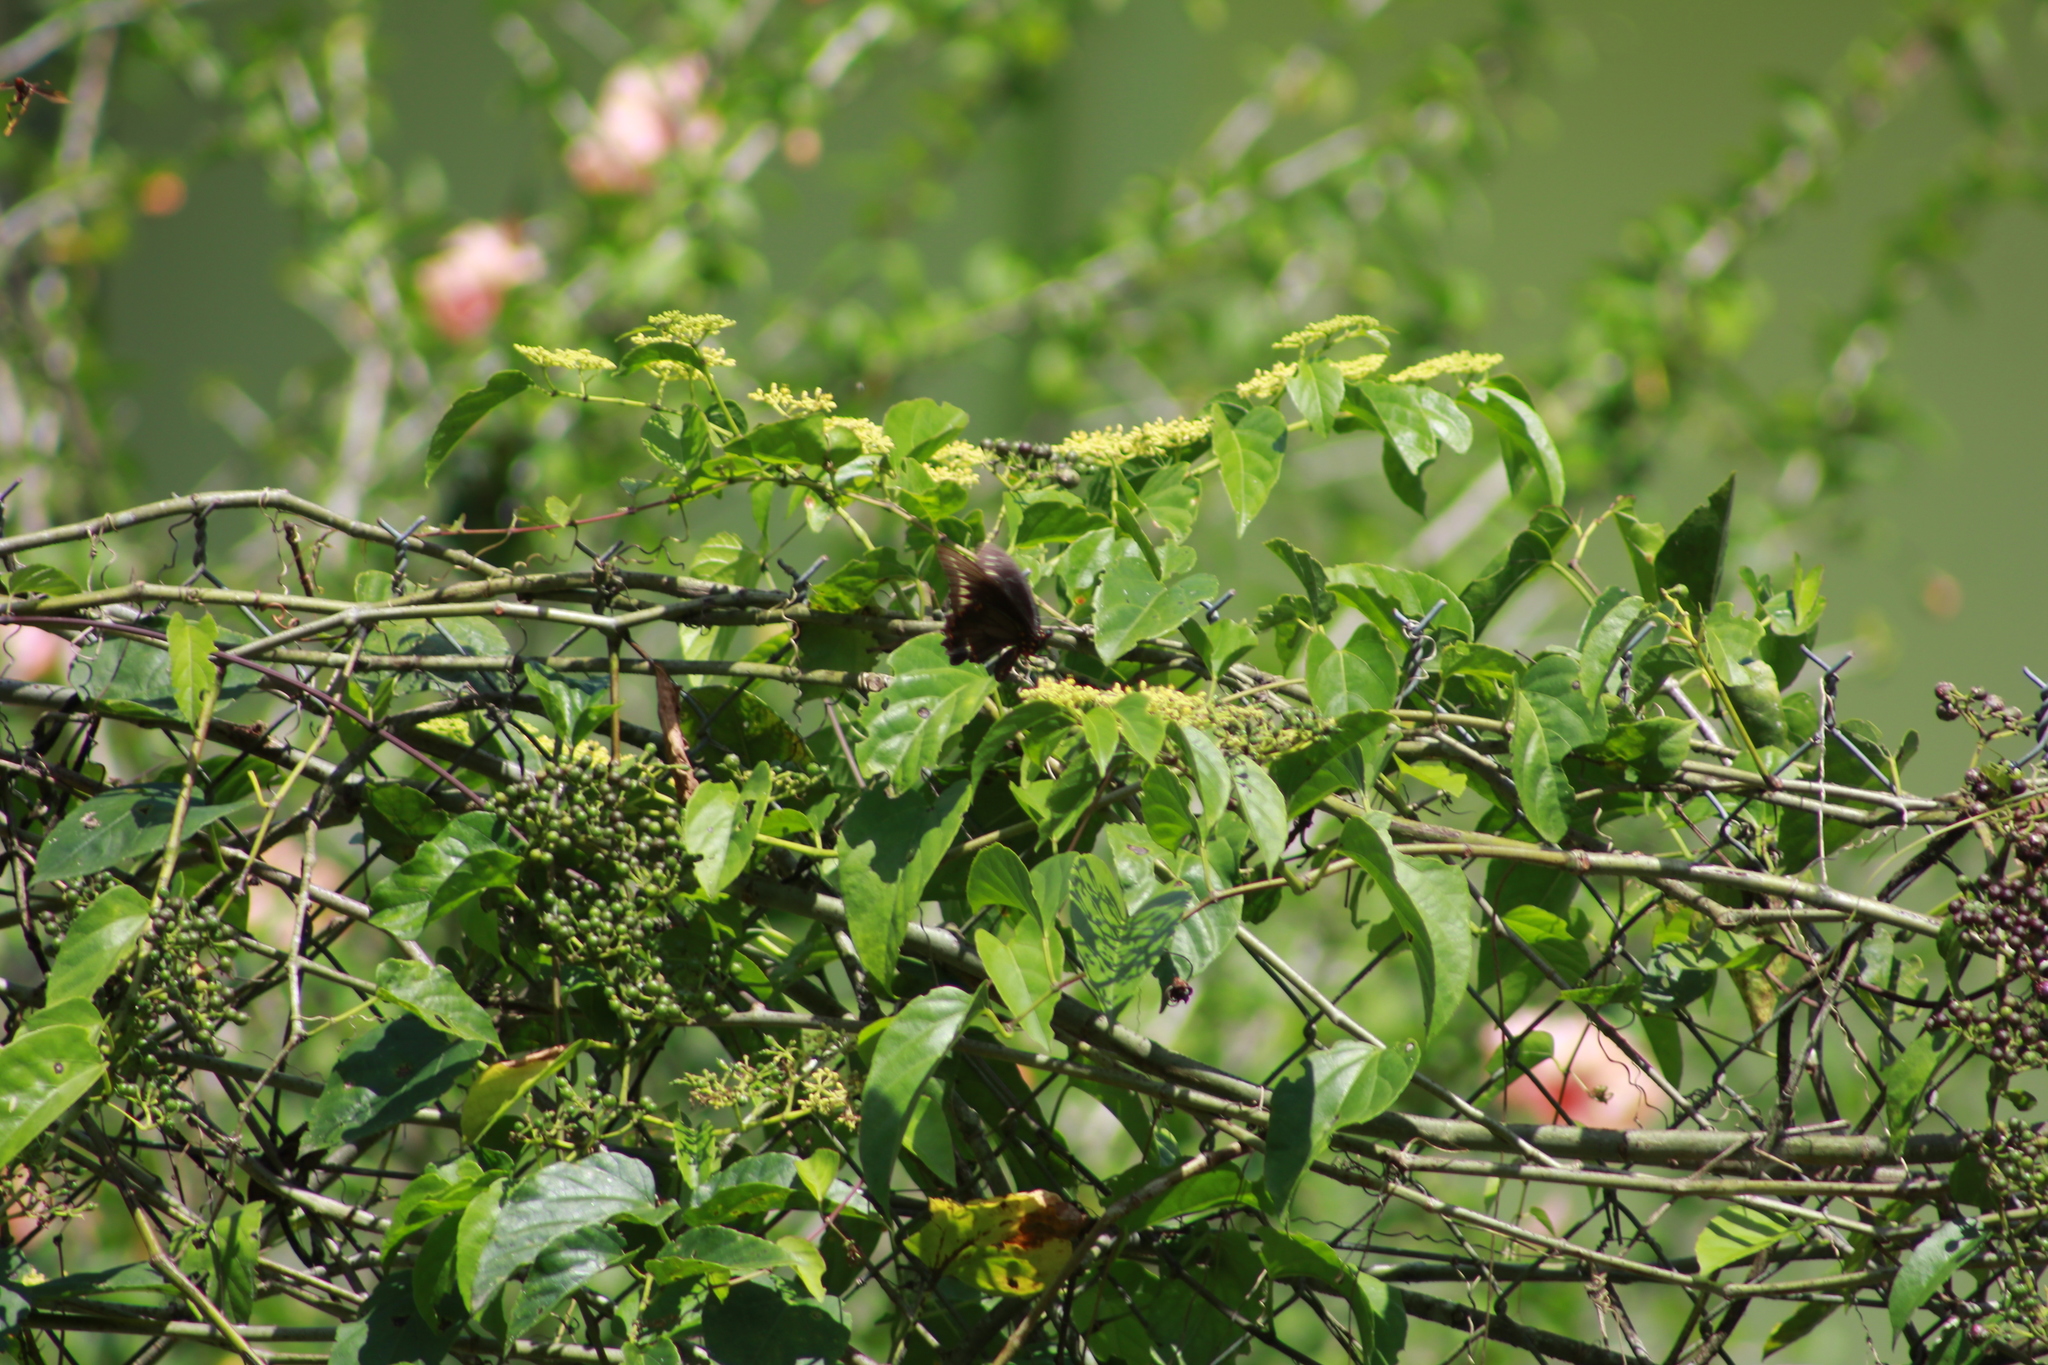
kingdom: Animalia
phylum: Arthropoda
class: Insecta
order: Lepidoptera
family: Papilionidae
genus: Battus
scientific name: Battus polydamas
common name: Polydamas swallowtail
